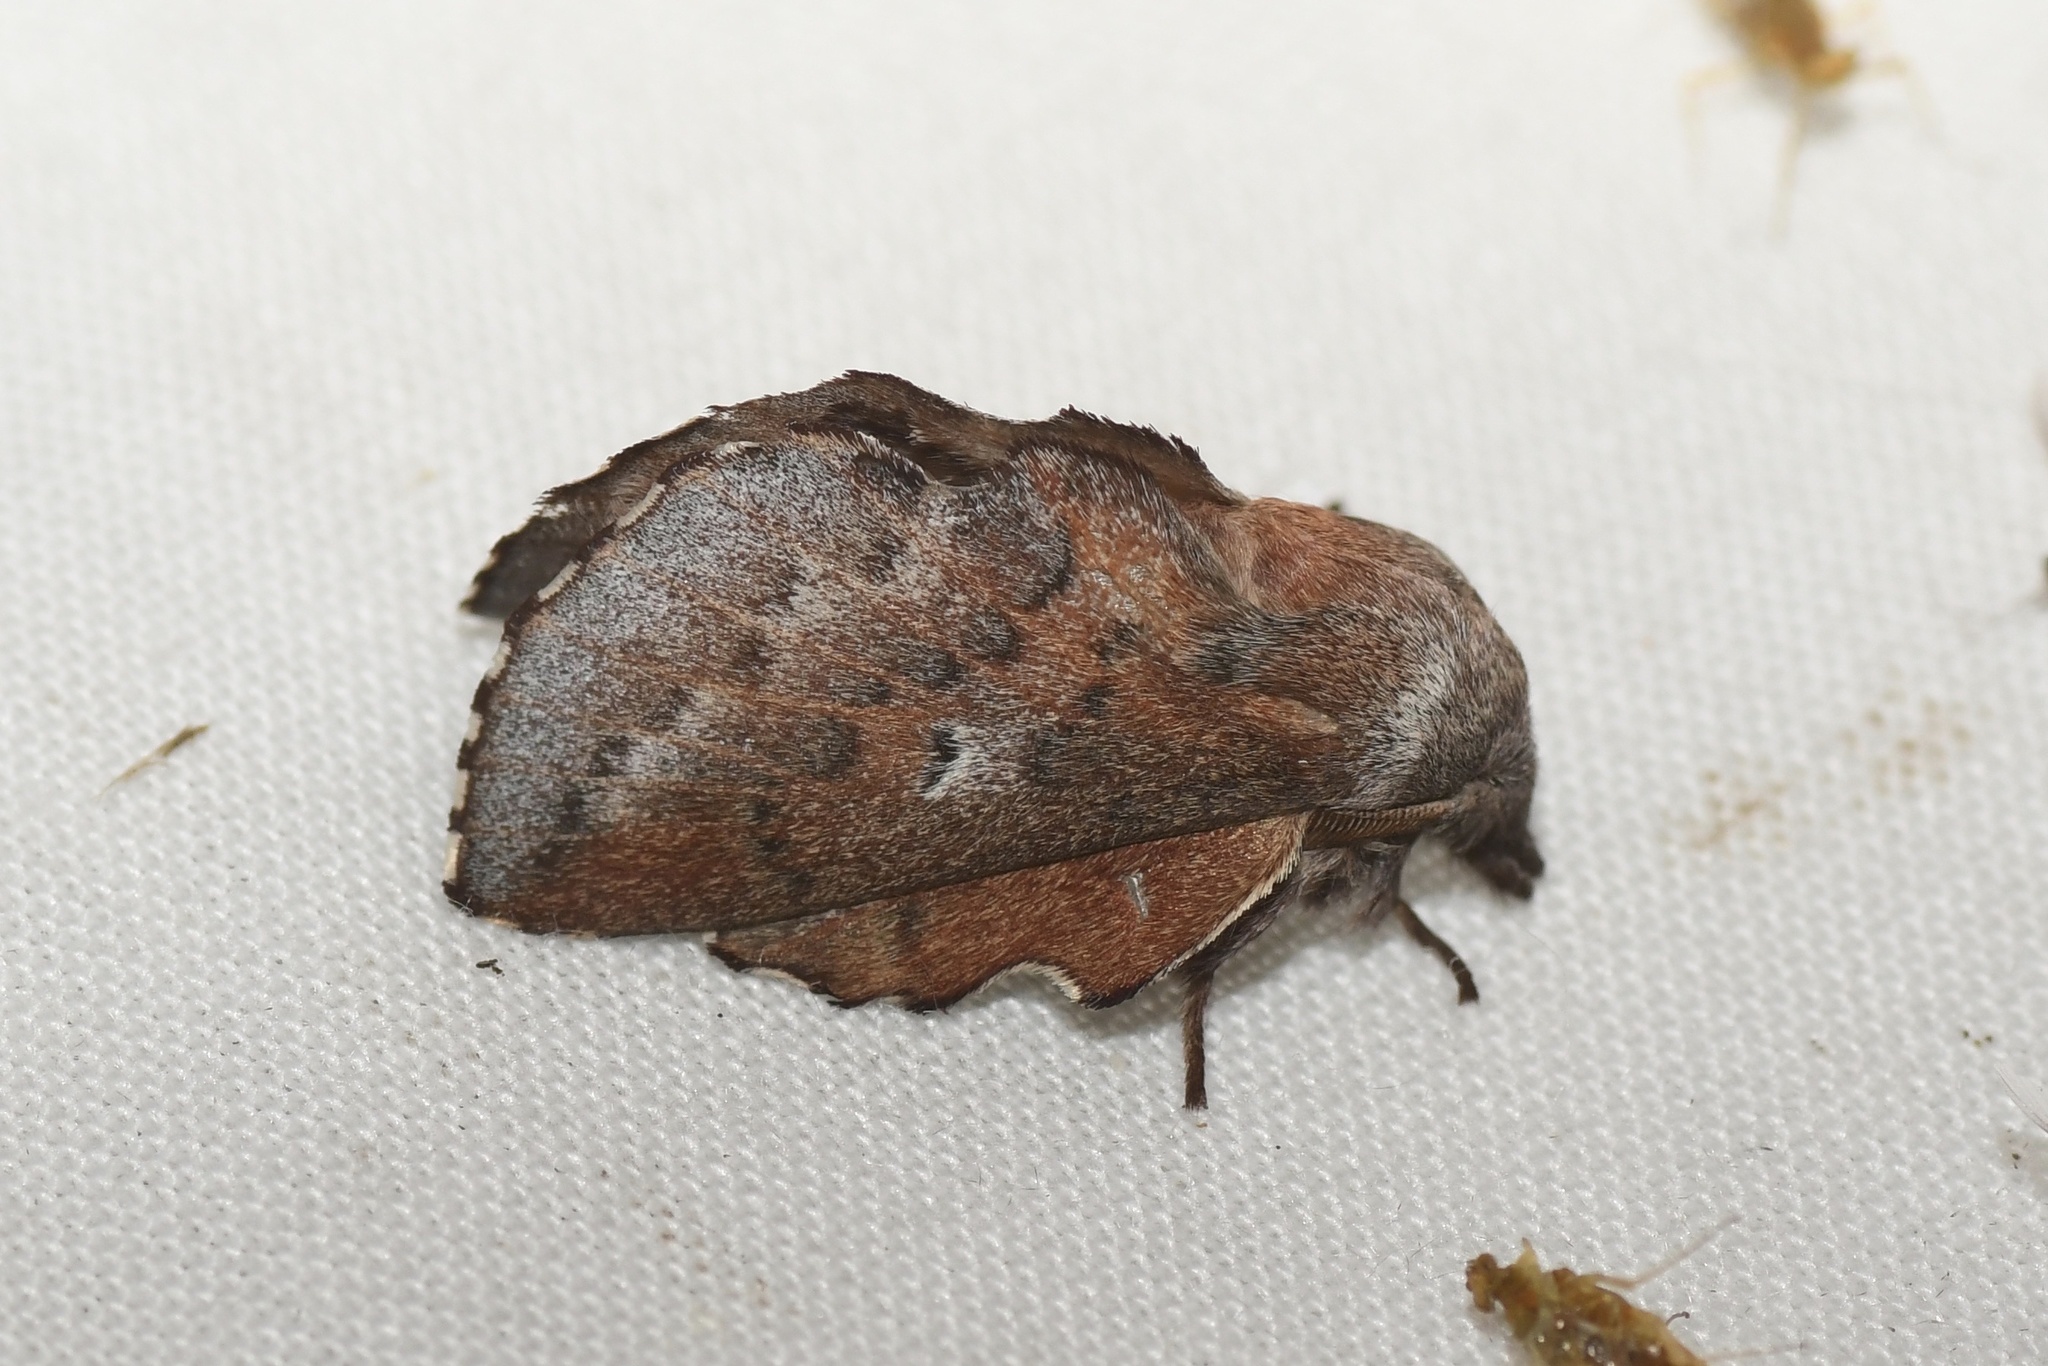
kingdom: Animalia
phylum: Arthropoda
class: Insecta
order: Lepidoptera
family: Lasiocampidae
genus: Phyllodesma
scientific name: Phyllodesma americana
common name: American lappet moth
